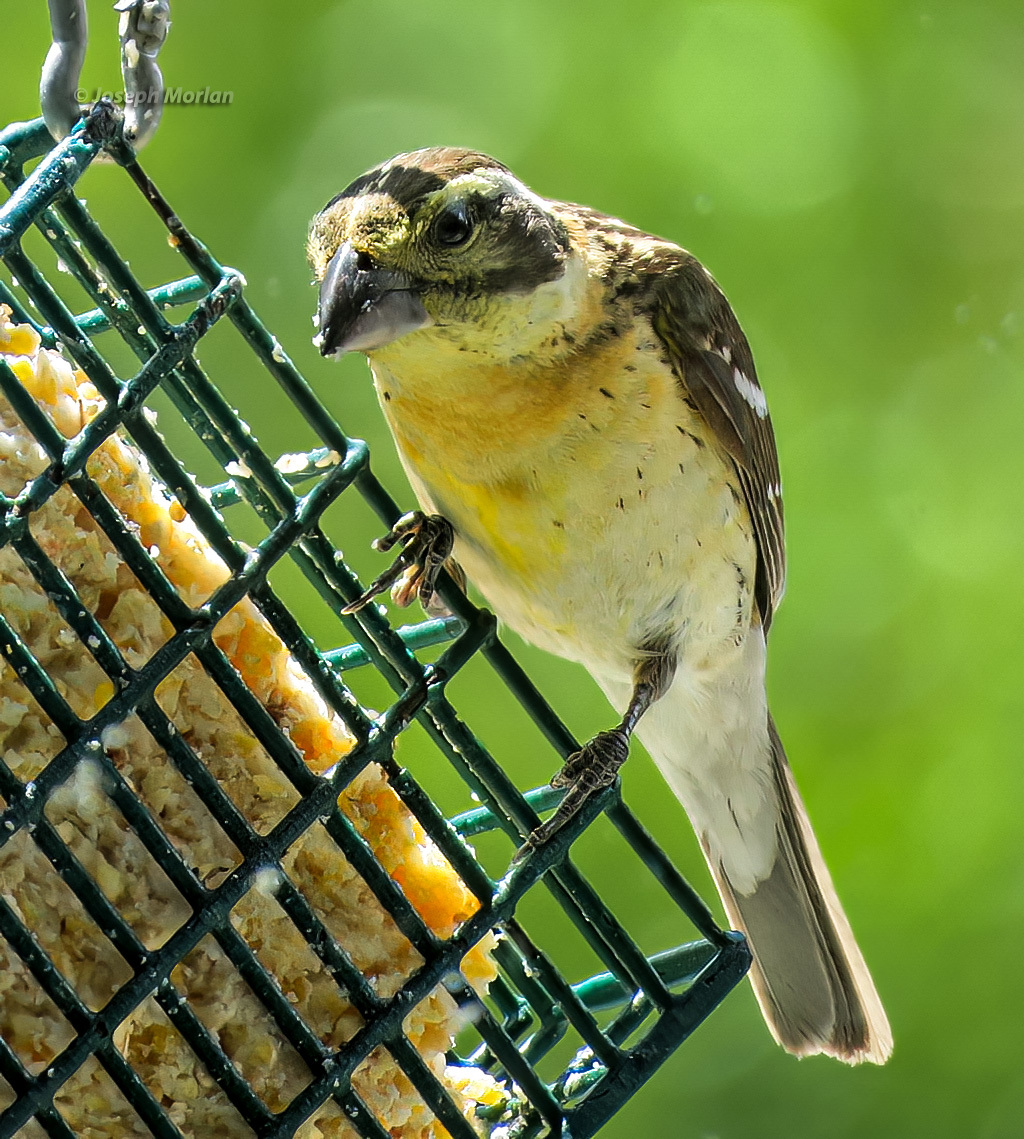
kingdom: Animalia
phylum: Chordata
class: Aves
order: Passeriformes
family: Cardinalidae
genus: Pheucticus
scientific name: Pheucticus melanocephalus
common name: Black-headed grosbeak
